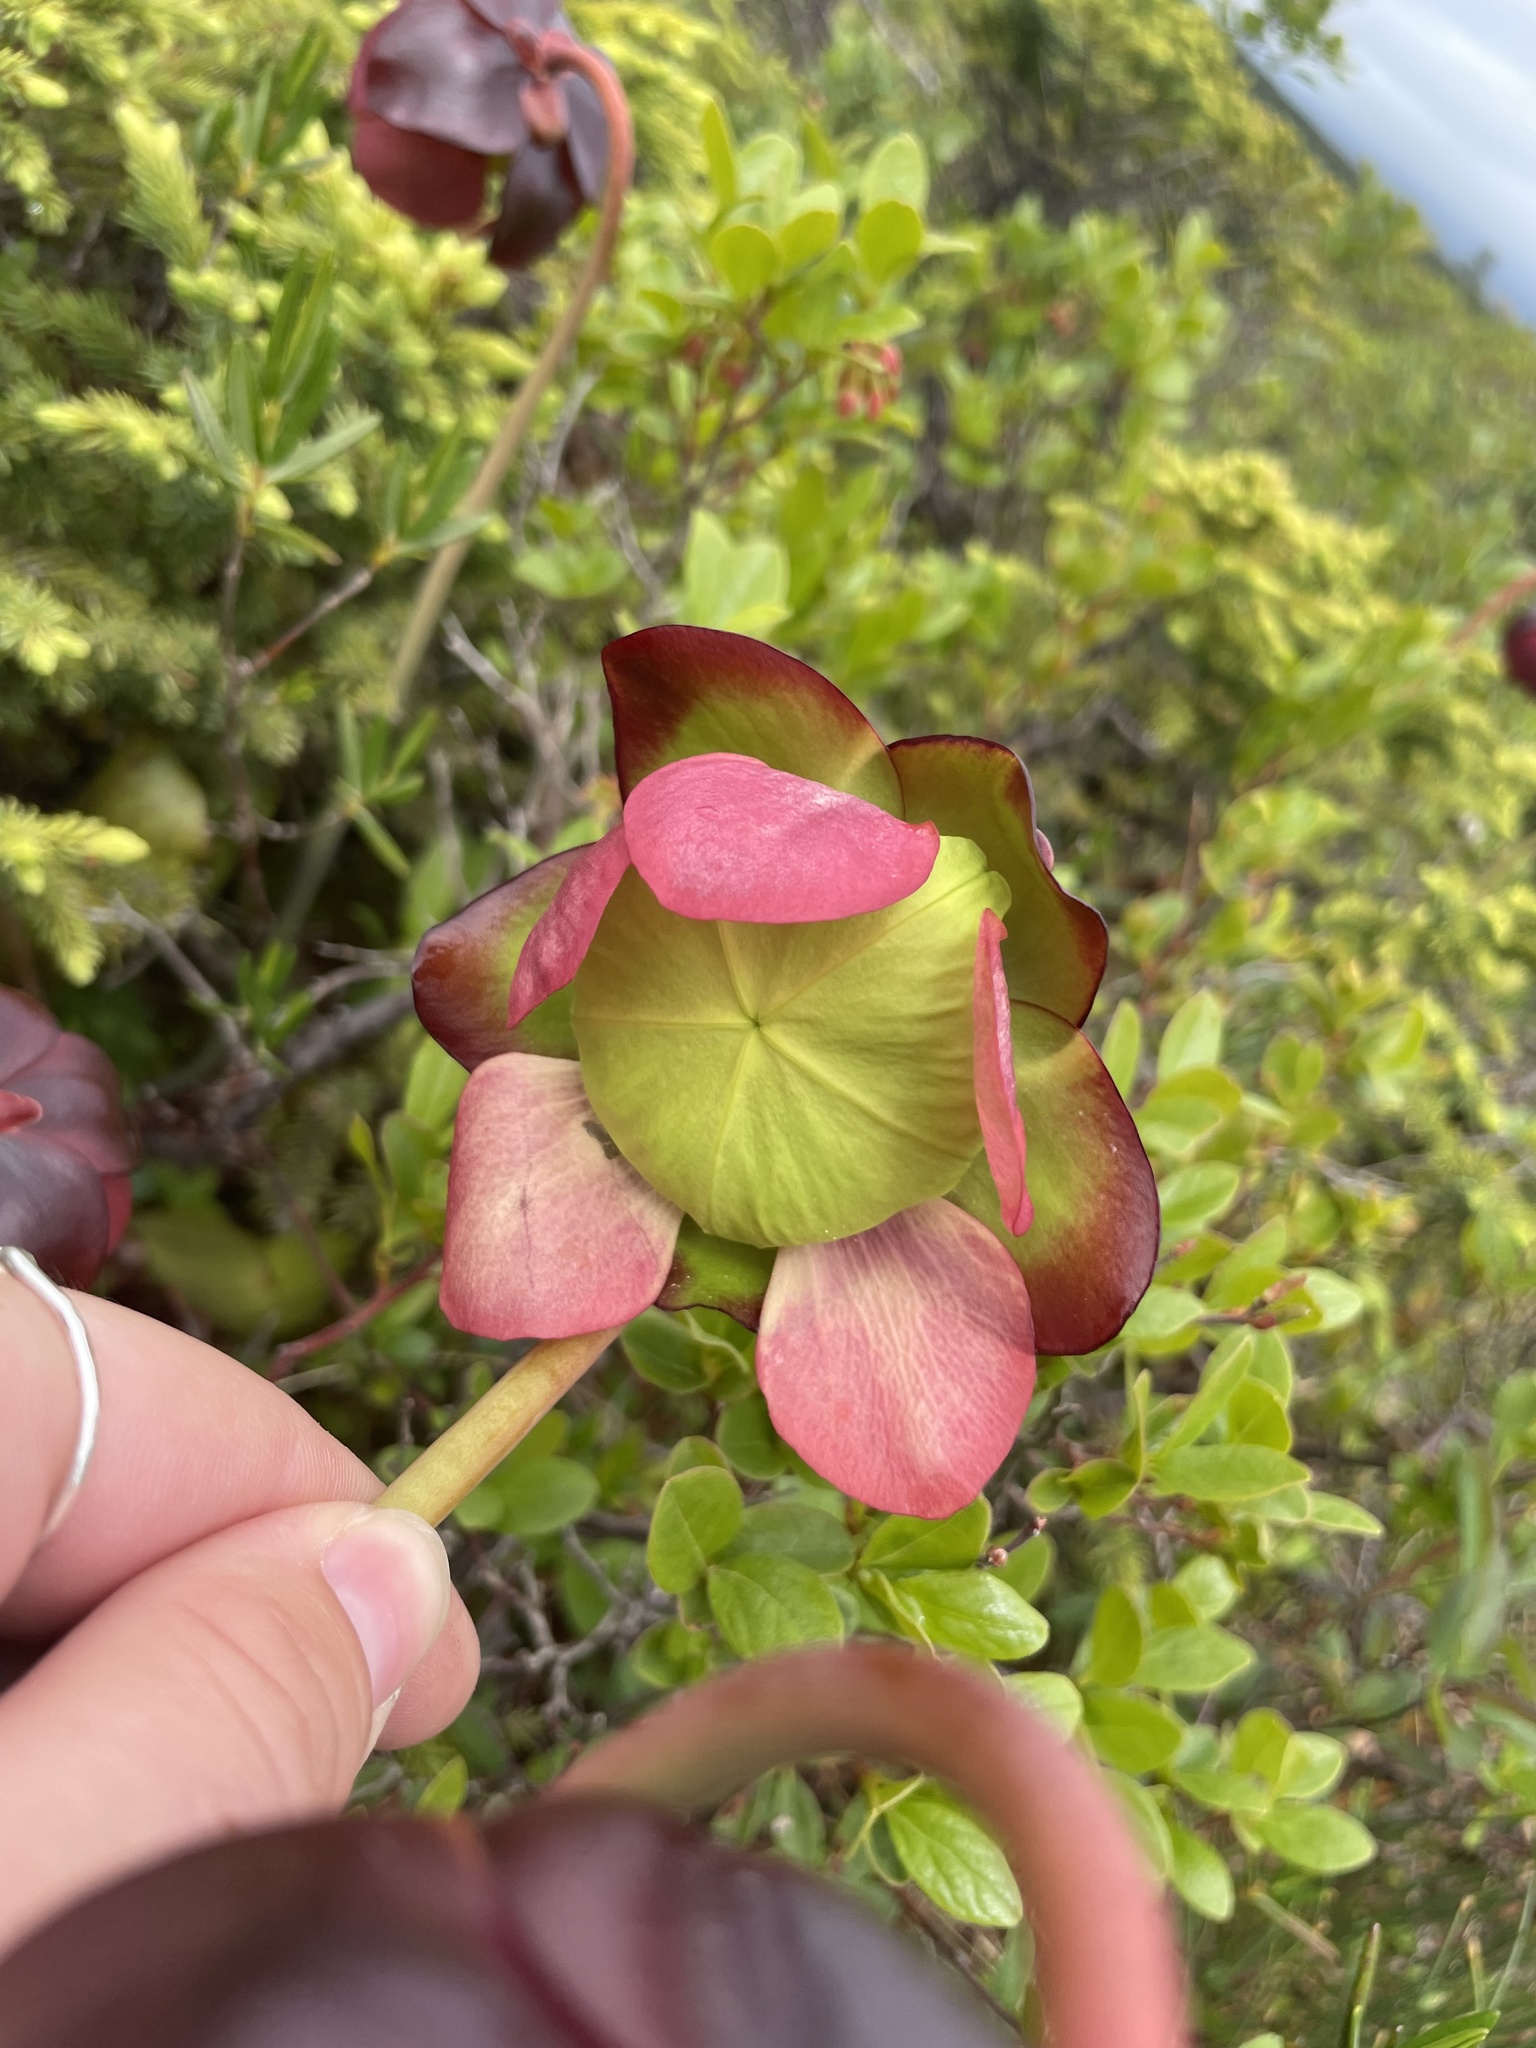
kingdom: Plantae
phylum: Tracheophyta
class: Magnoliopsida
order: Ericales
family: Sarraceniaceae
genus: Sarracenia
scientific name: Sarracenia purpurea
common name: Pitcherplant
